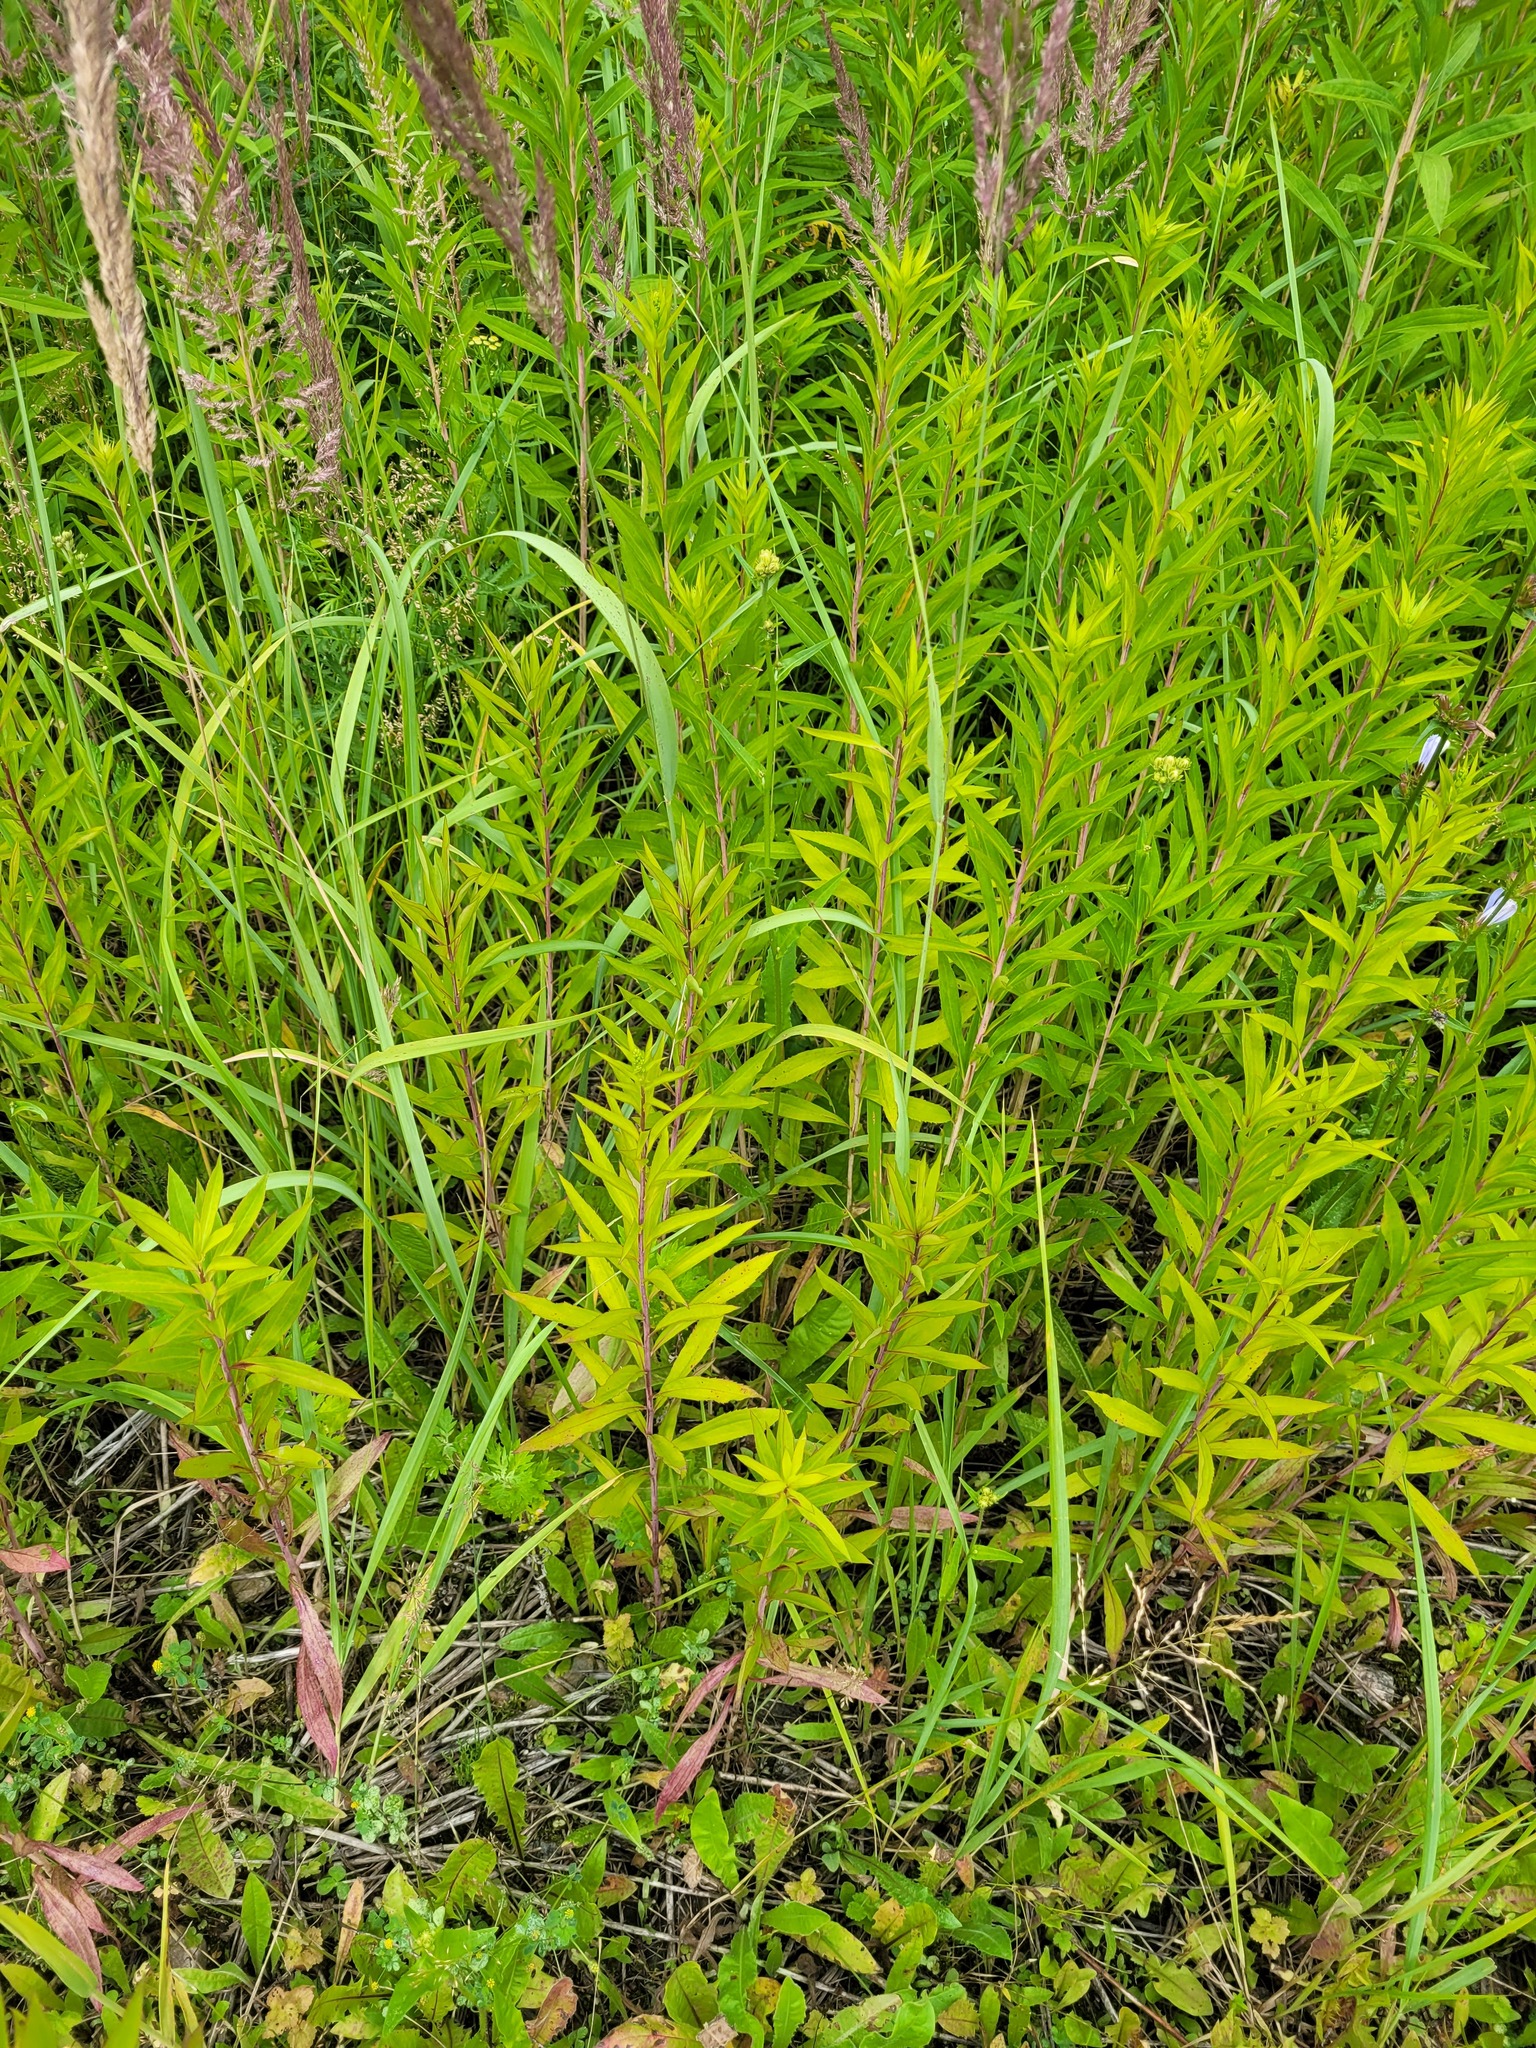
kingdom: Plantae
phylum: Tracheophyta
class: Magnoliopsida
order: Asterales
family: Asteraceae
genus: Solidago
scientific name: Solidago gigantea
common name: Giant goldenrod
